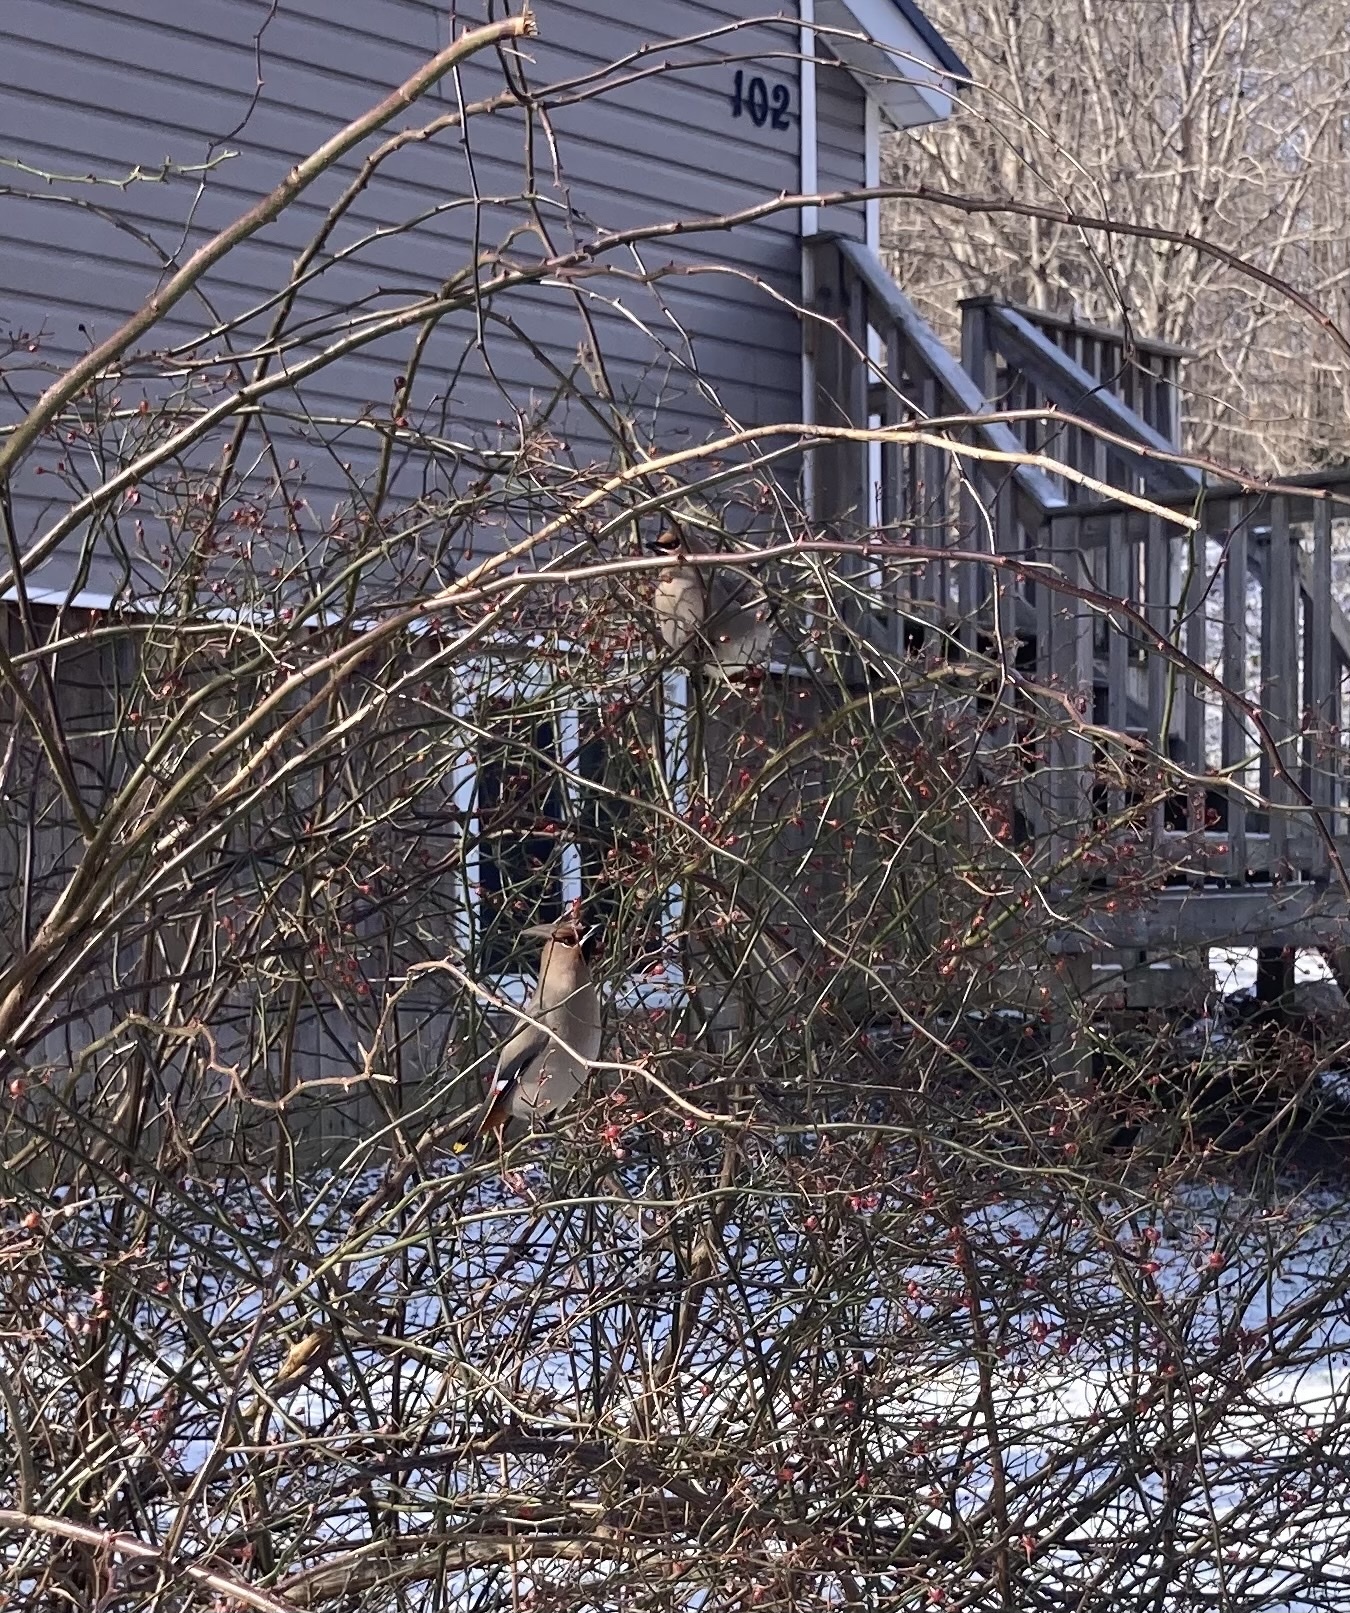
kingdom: Animalia
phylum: Chordata
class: Aves
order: Passeriformes
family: Bombycillidae
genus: Bombycilla
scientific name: Bombycilla garrulus
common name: Bohemian waxwing
